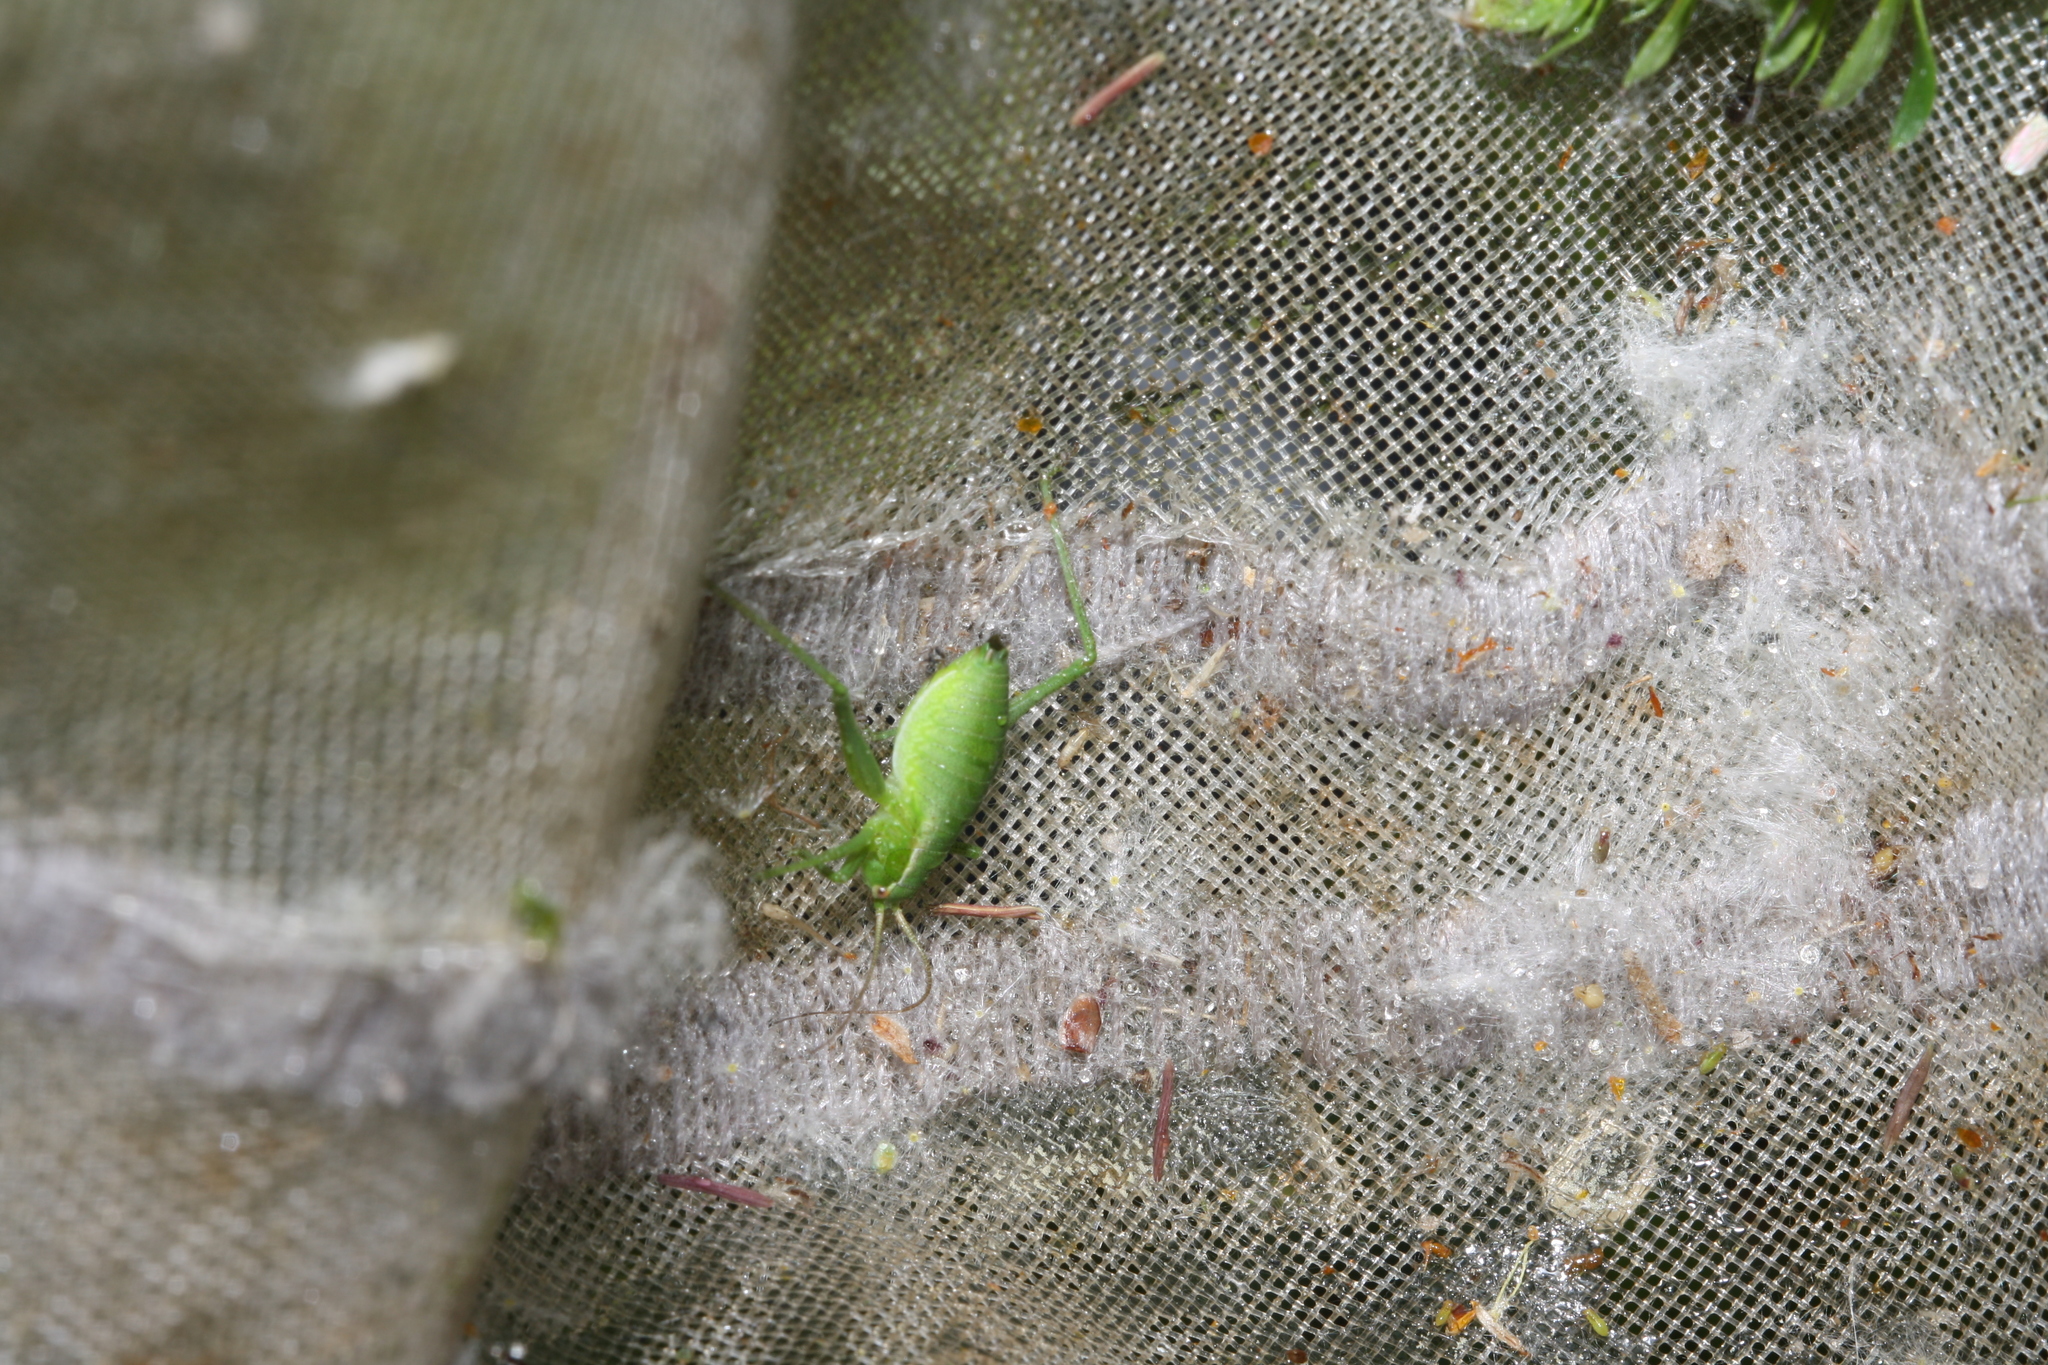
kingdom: Animalia
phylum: Arthropoda
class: Insecta
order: Orthoptera
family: Tettigoniidae
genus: Isophya
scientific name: Isophya camptoxypha
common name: Curve-tailed plump bush-cricket
